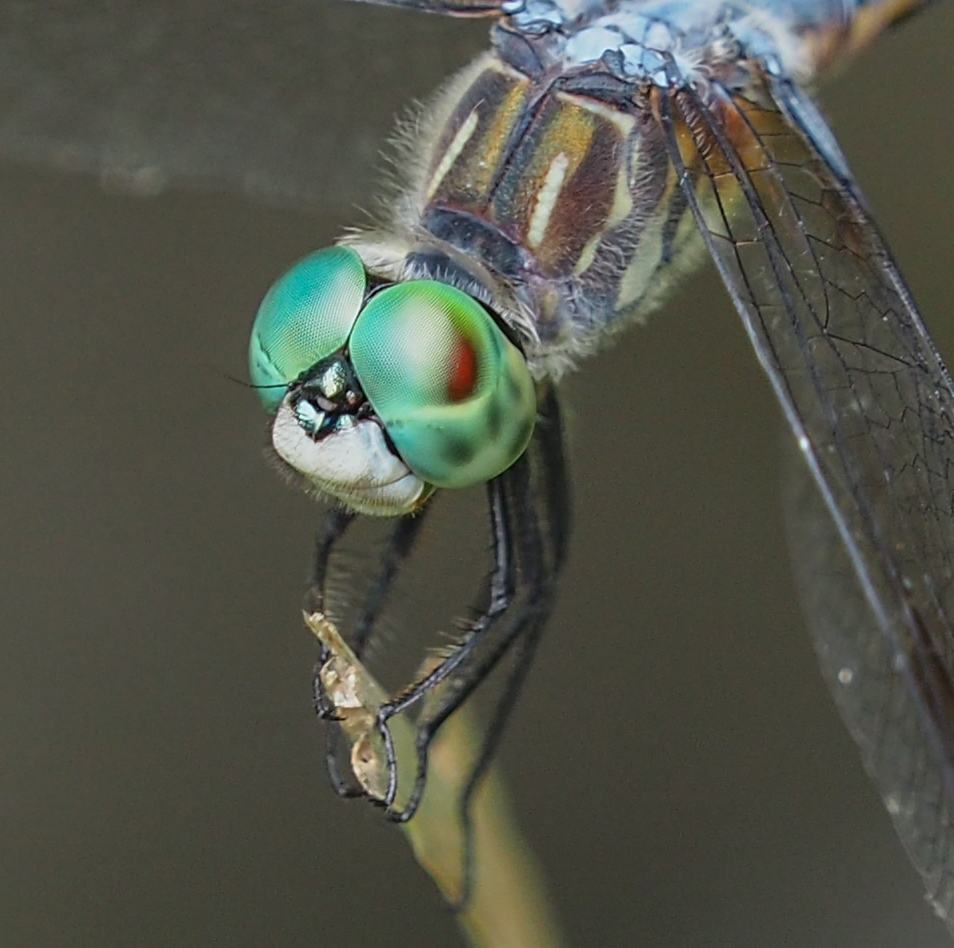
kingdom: Animalia
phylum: Arthropoda
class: Insecta
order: Odonata
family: Libellulidae
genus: Pachydiplax
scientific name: Pachydiplax longipennis
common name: Blue dasher
